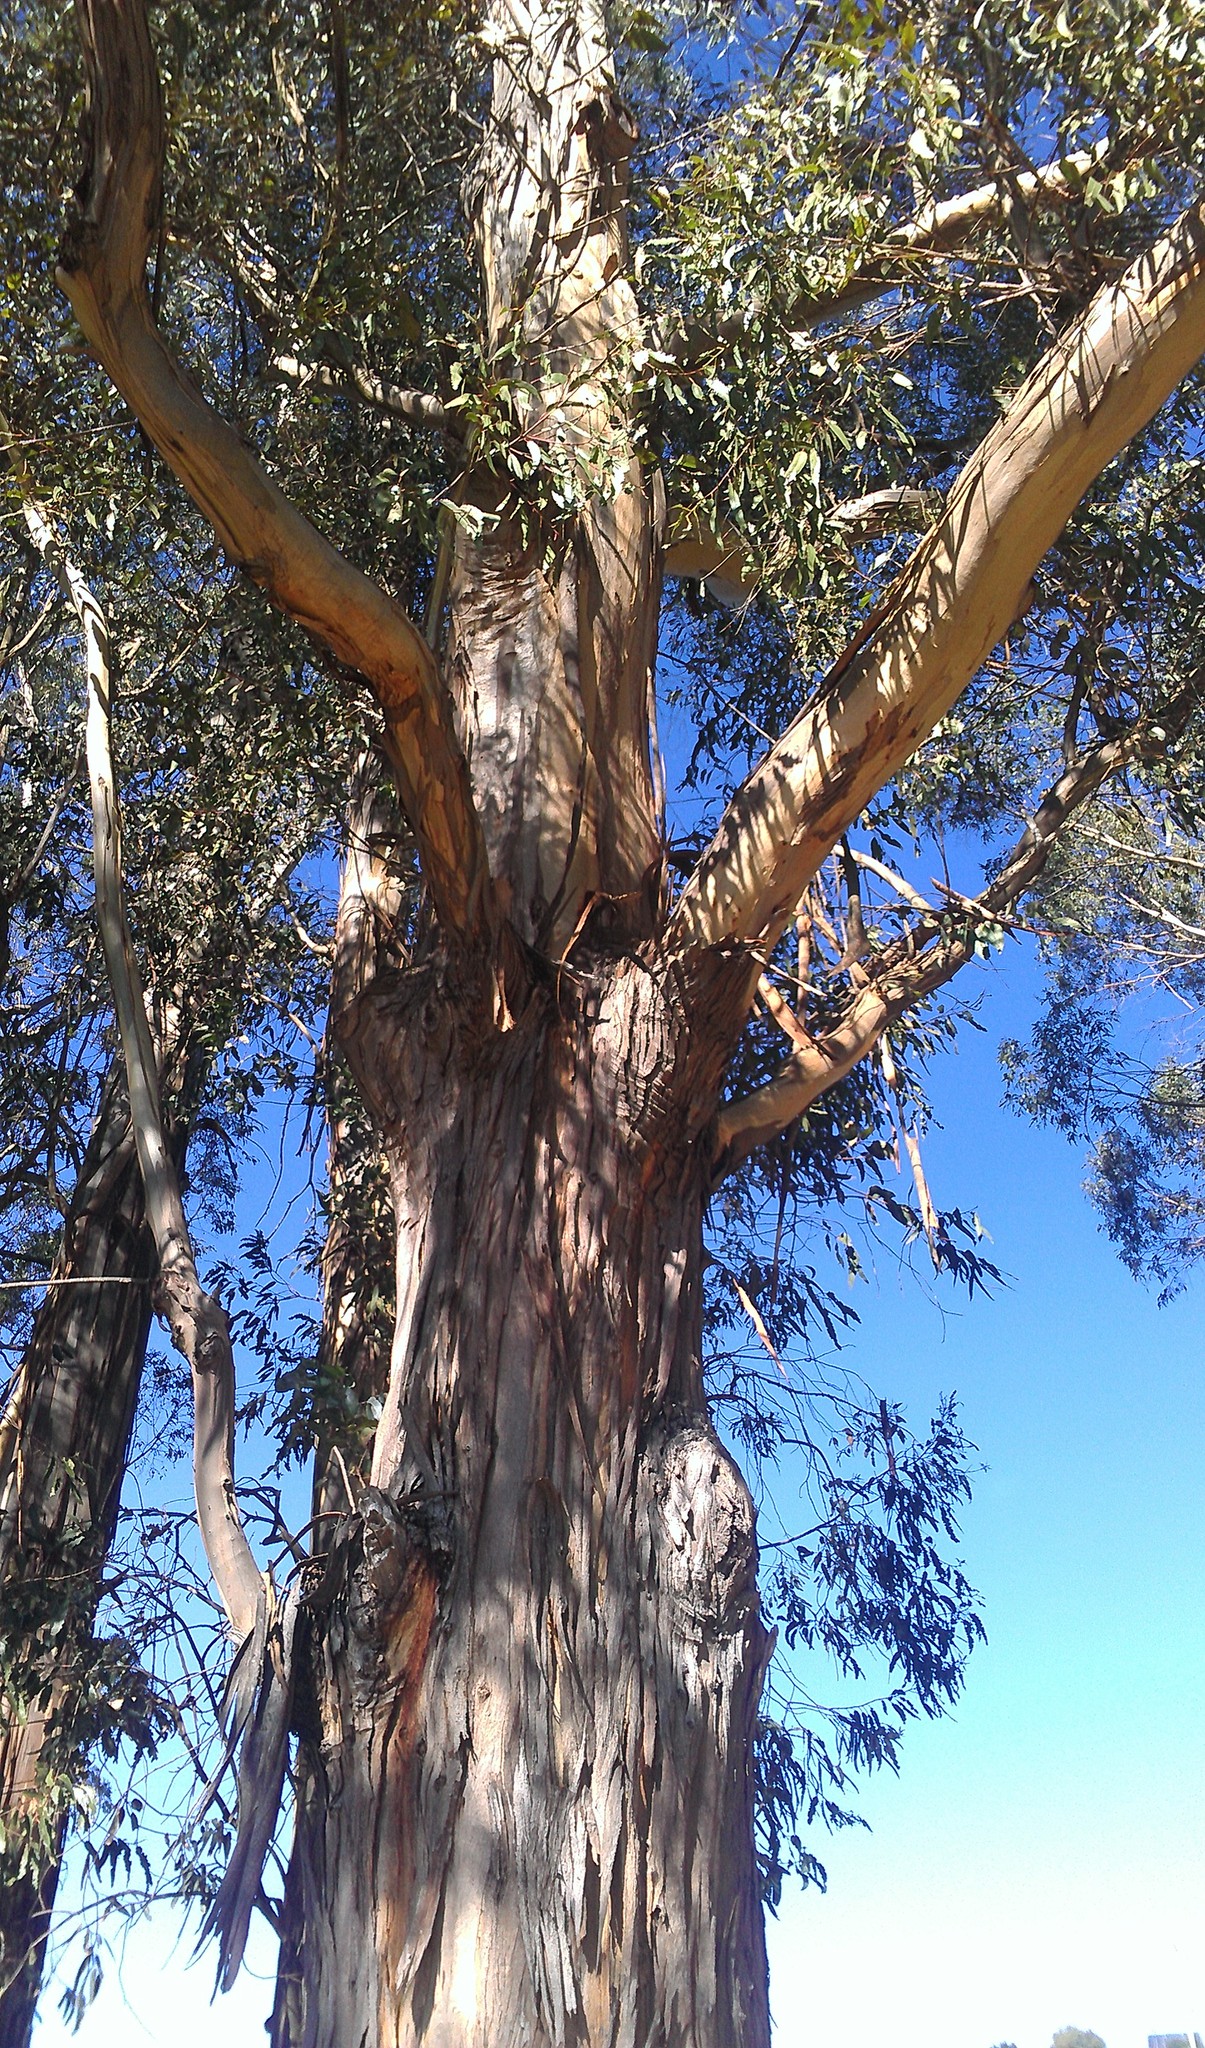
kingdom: Plantae
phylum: Tracheophyta
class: Magnoliopsida
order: Myrtales
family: Myrtaceae
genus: Eucalyptus
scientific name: Eucalyptus globulus
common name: Southern blue-gum
